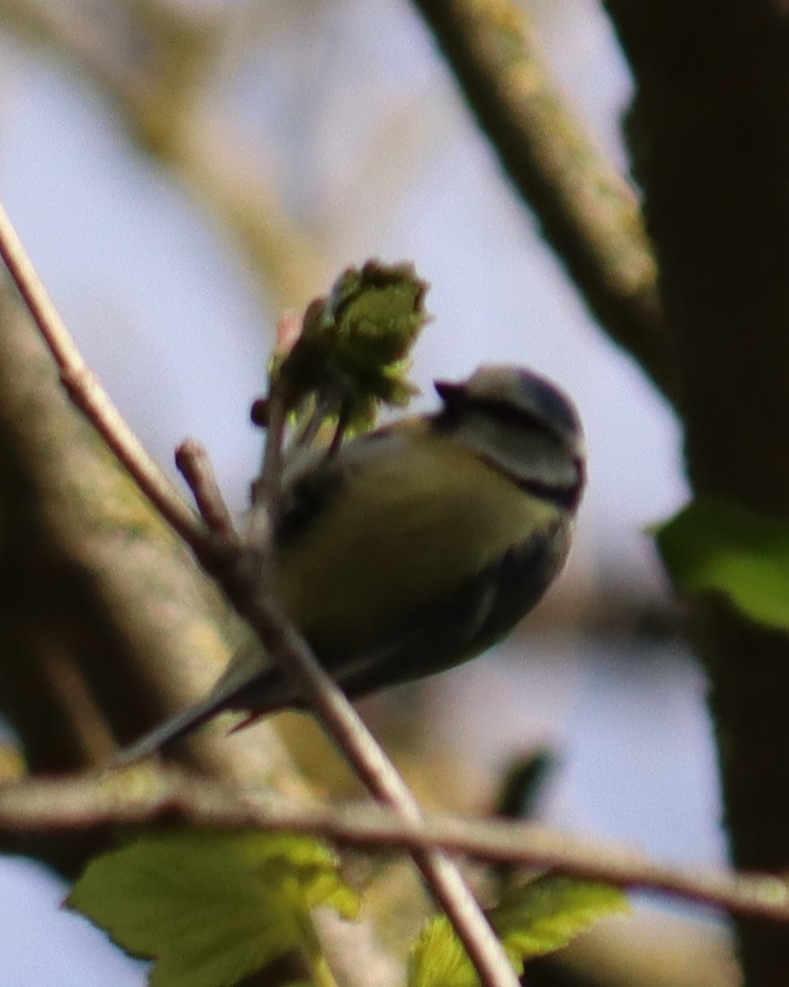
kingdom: Animalia
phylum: Chordata
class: Aves
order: Passeriformes
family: Paridae
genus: Cyanistes
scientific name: Cyanistes caeruleus
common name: Eurasian blue tit
